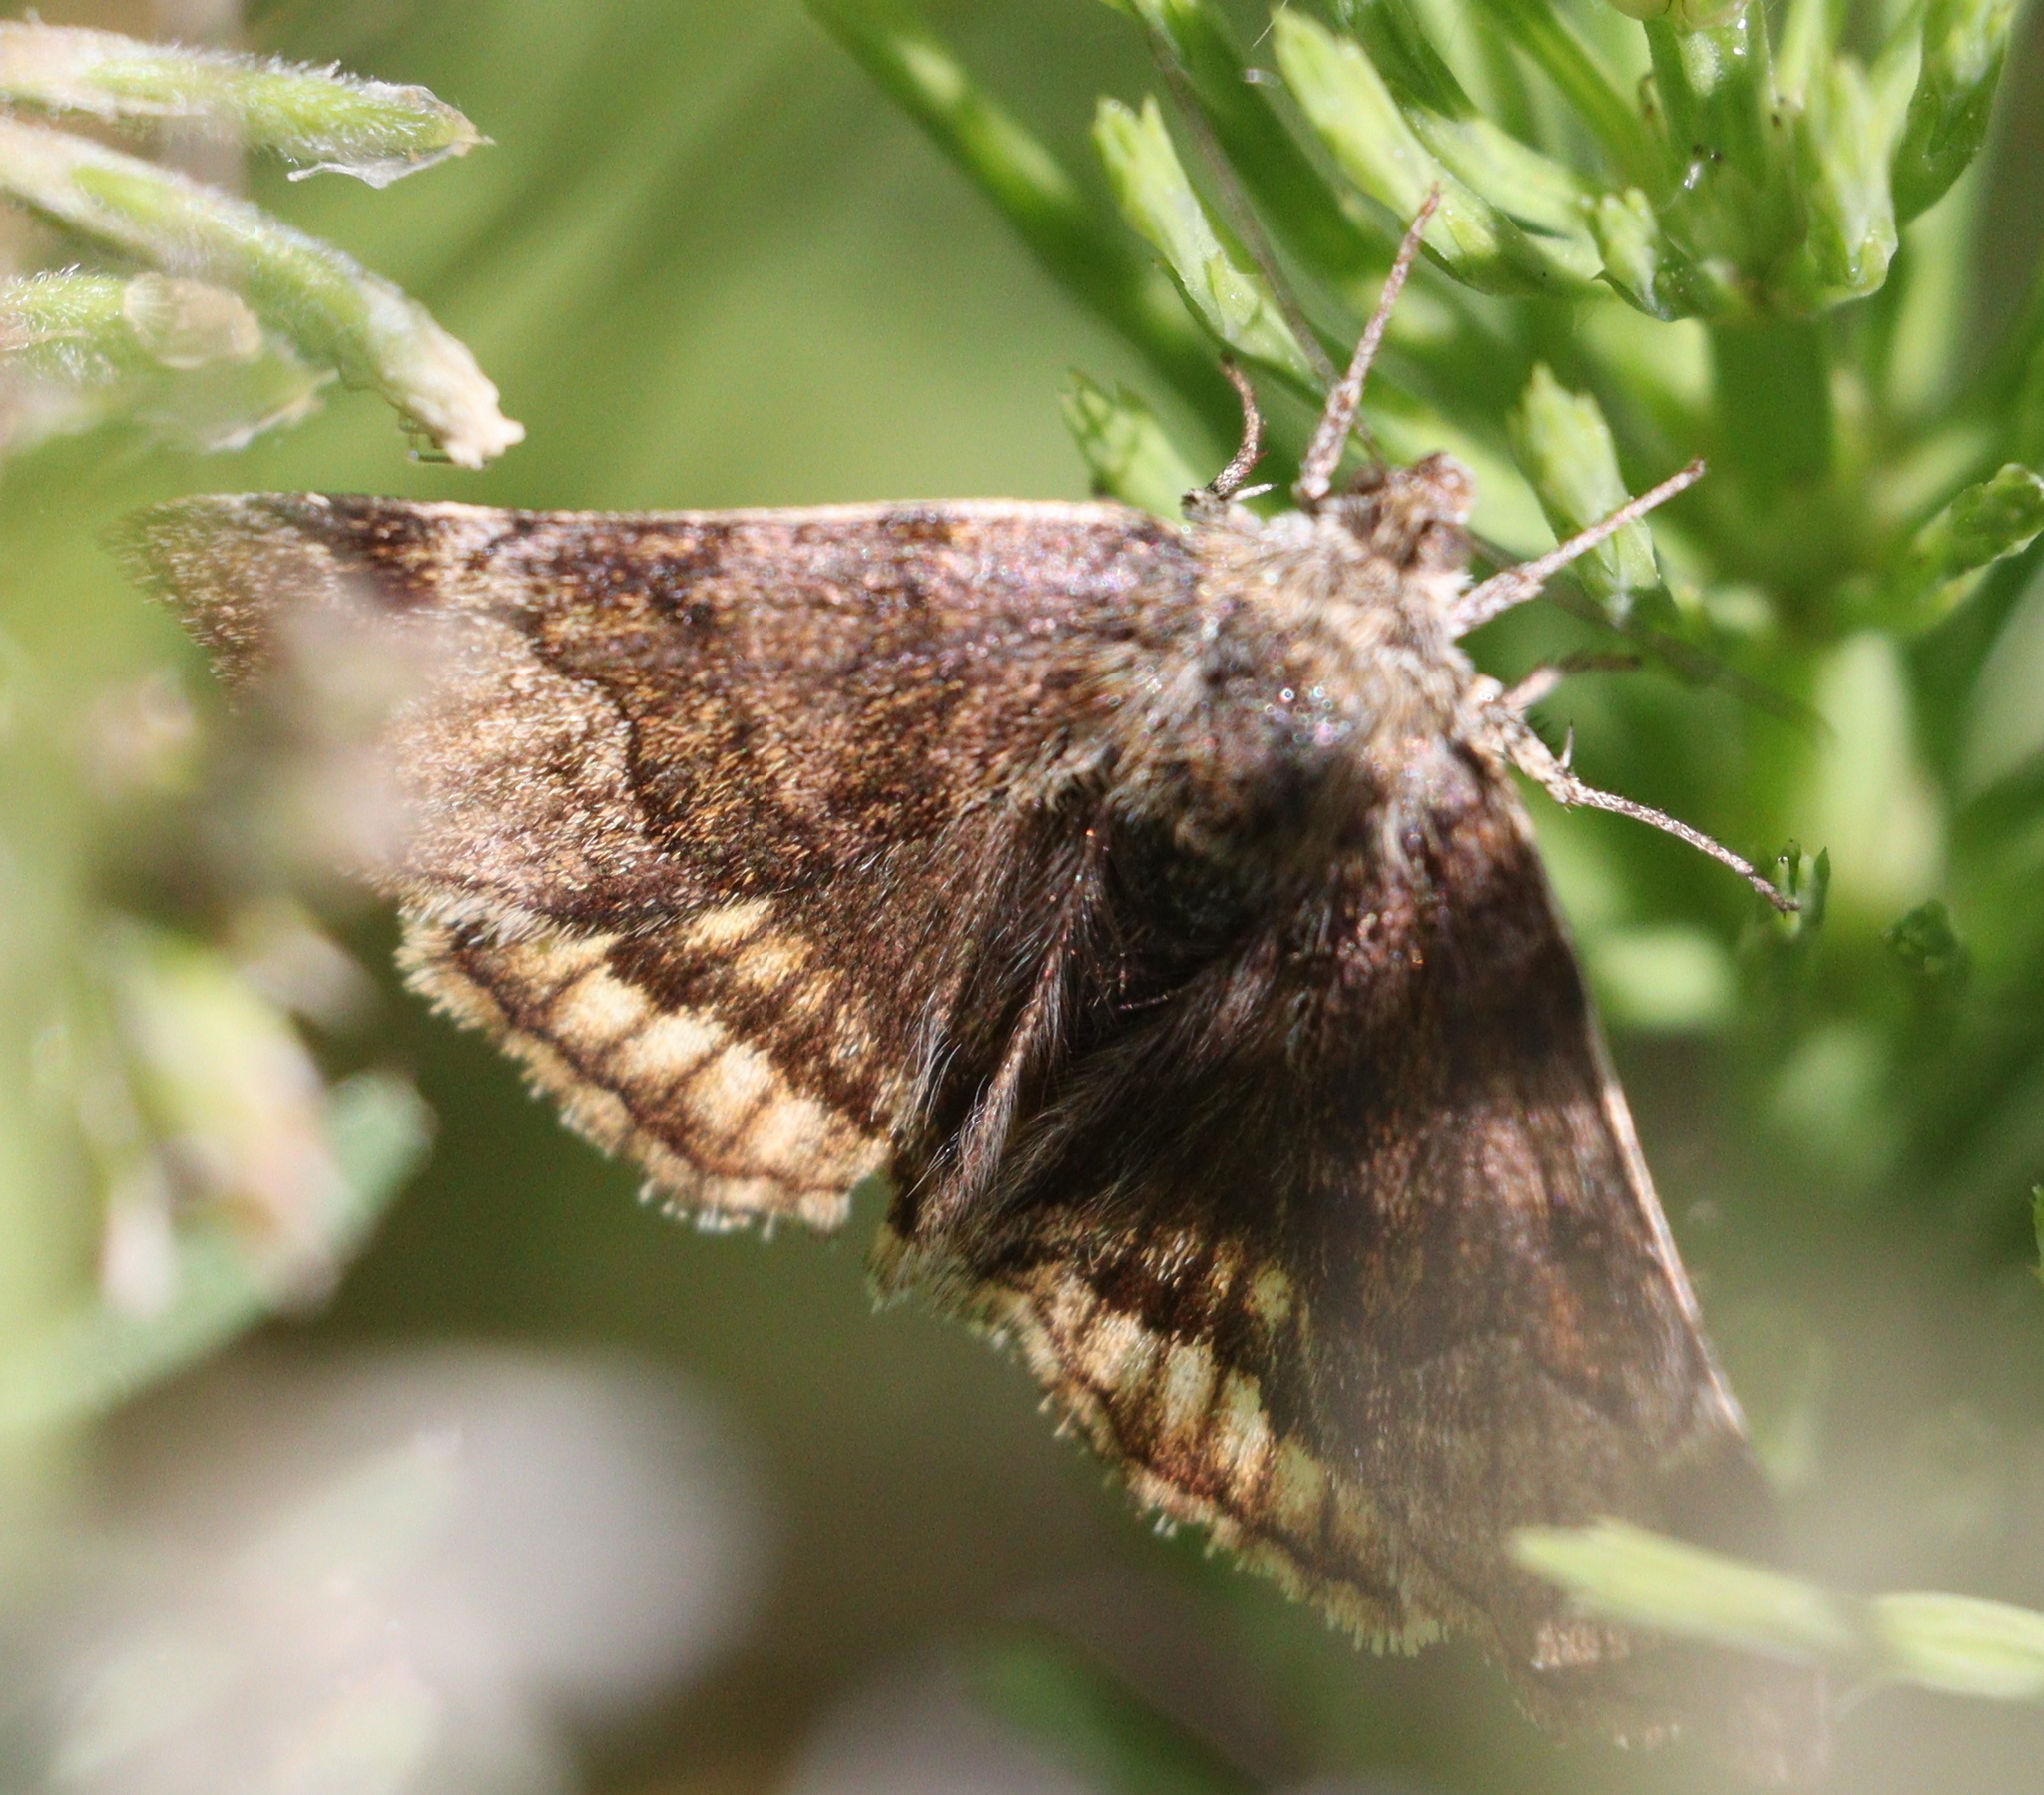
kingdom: Animalia
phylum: Arthropoda
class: Insecta
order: Lepidoptera
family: Erebidae
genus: Euclidia
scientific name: Euclidia glyphica
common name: Burnet companion
